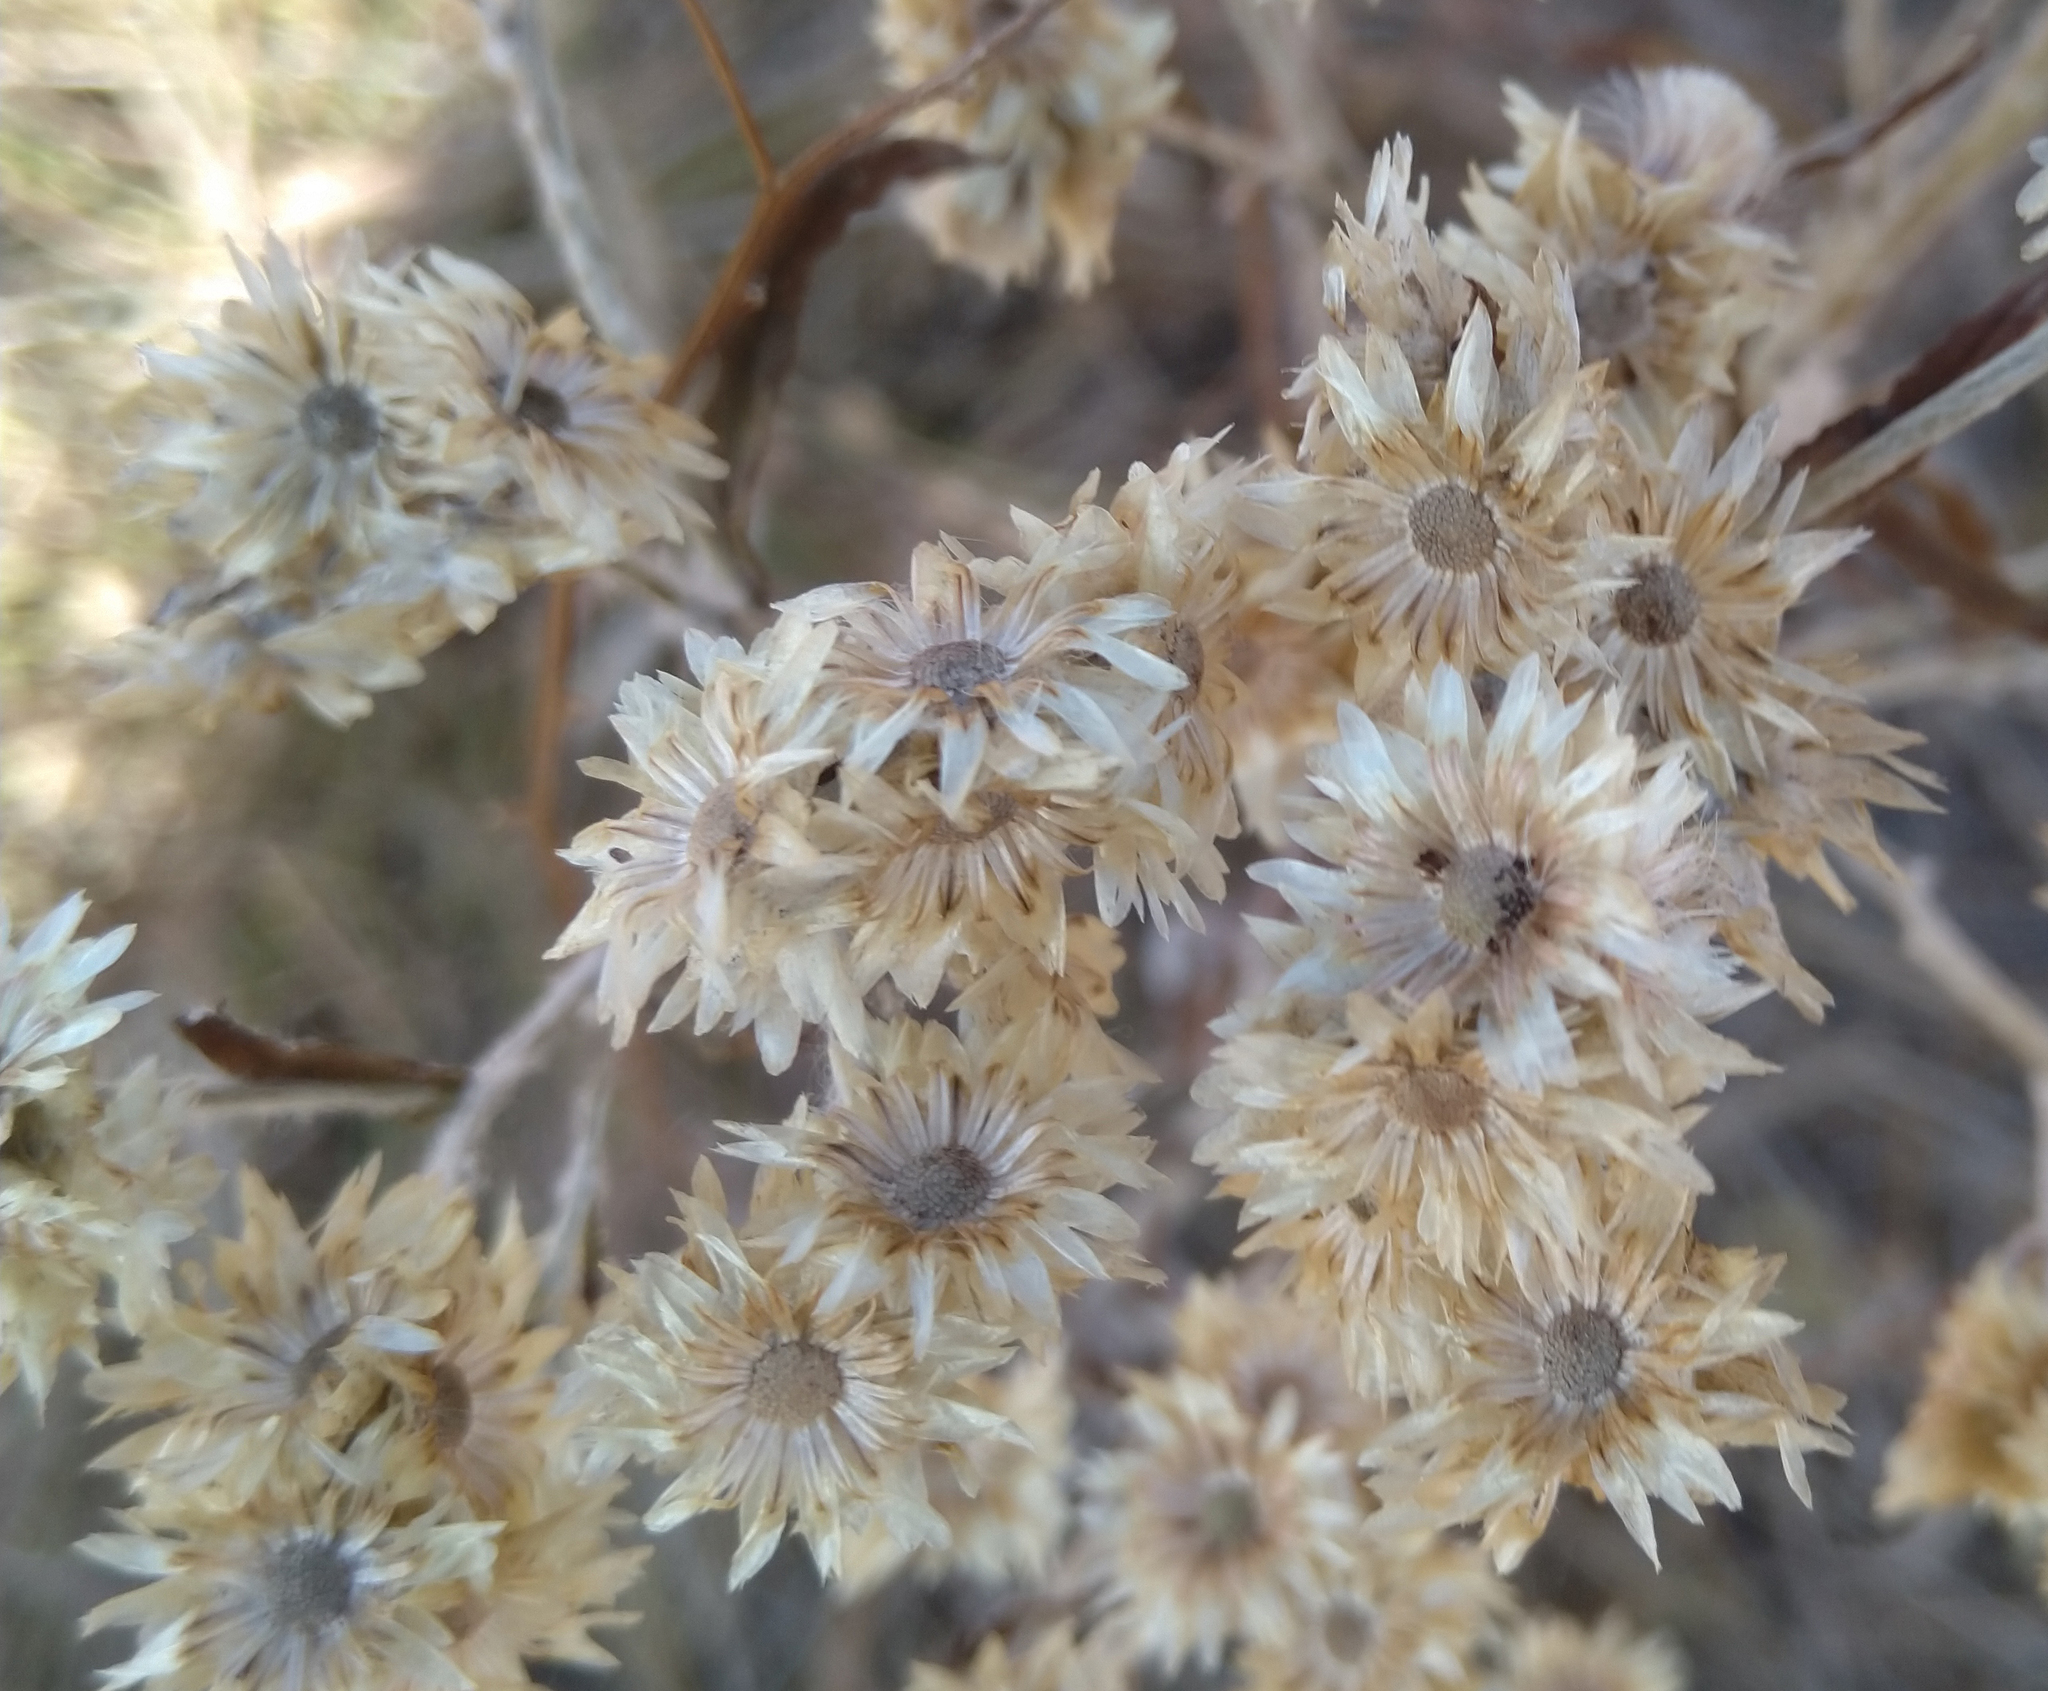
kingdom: Plantae
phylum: Tracheophyta
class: Magnoliopsida
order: Asterales
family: Asteraceae
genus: Pseudognaphalium
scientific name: Pseudognaphalium obtusifolium
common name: Eastern rabbit-tobacco
